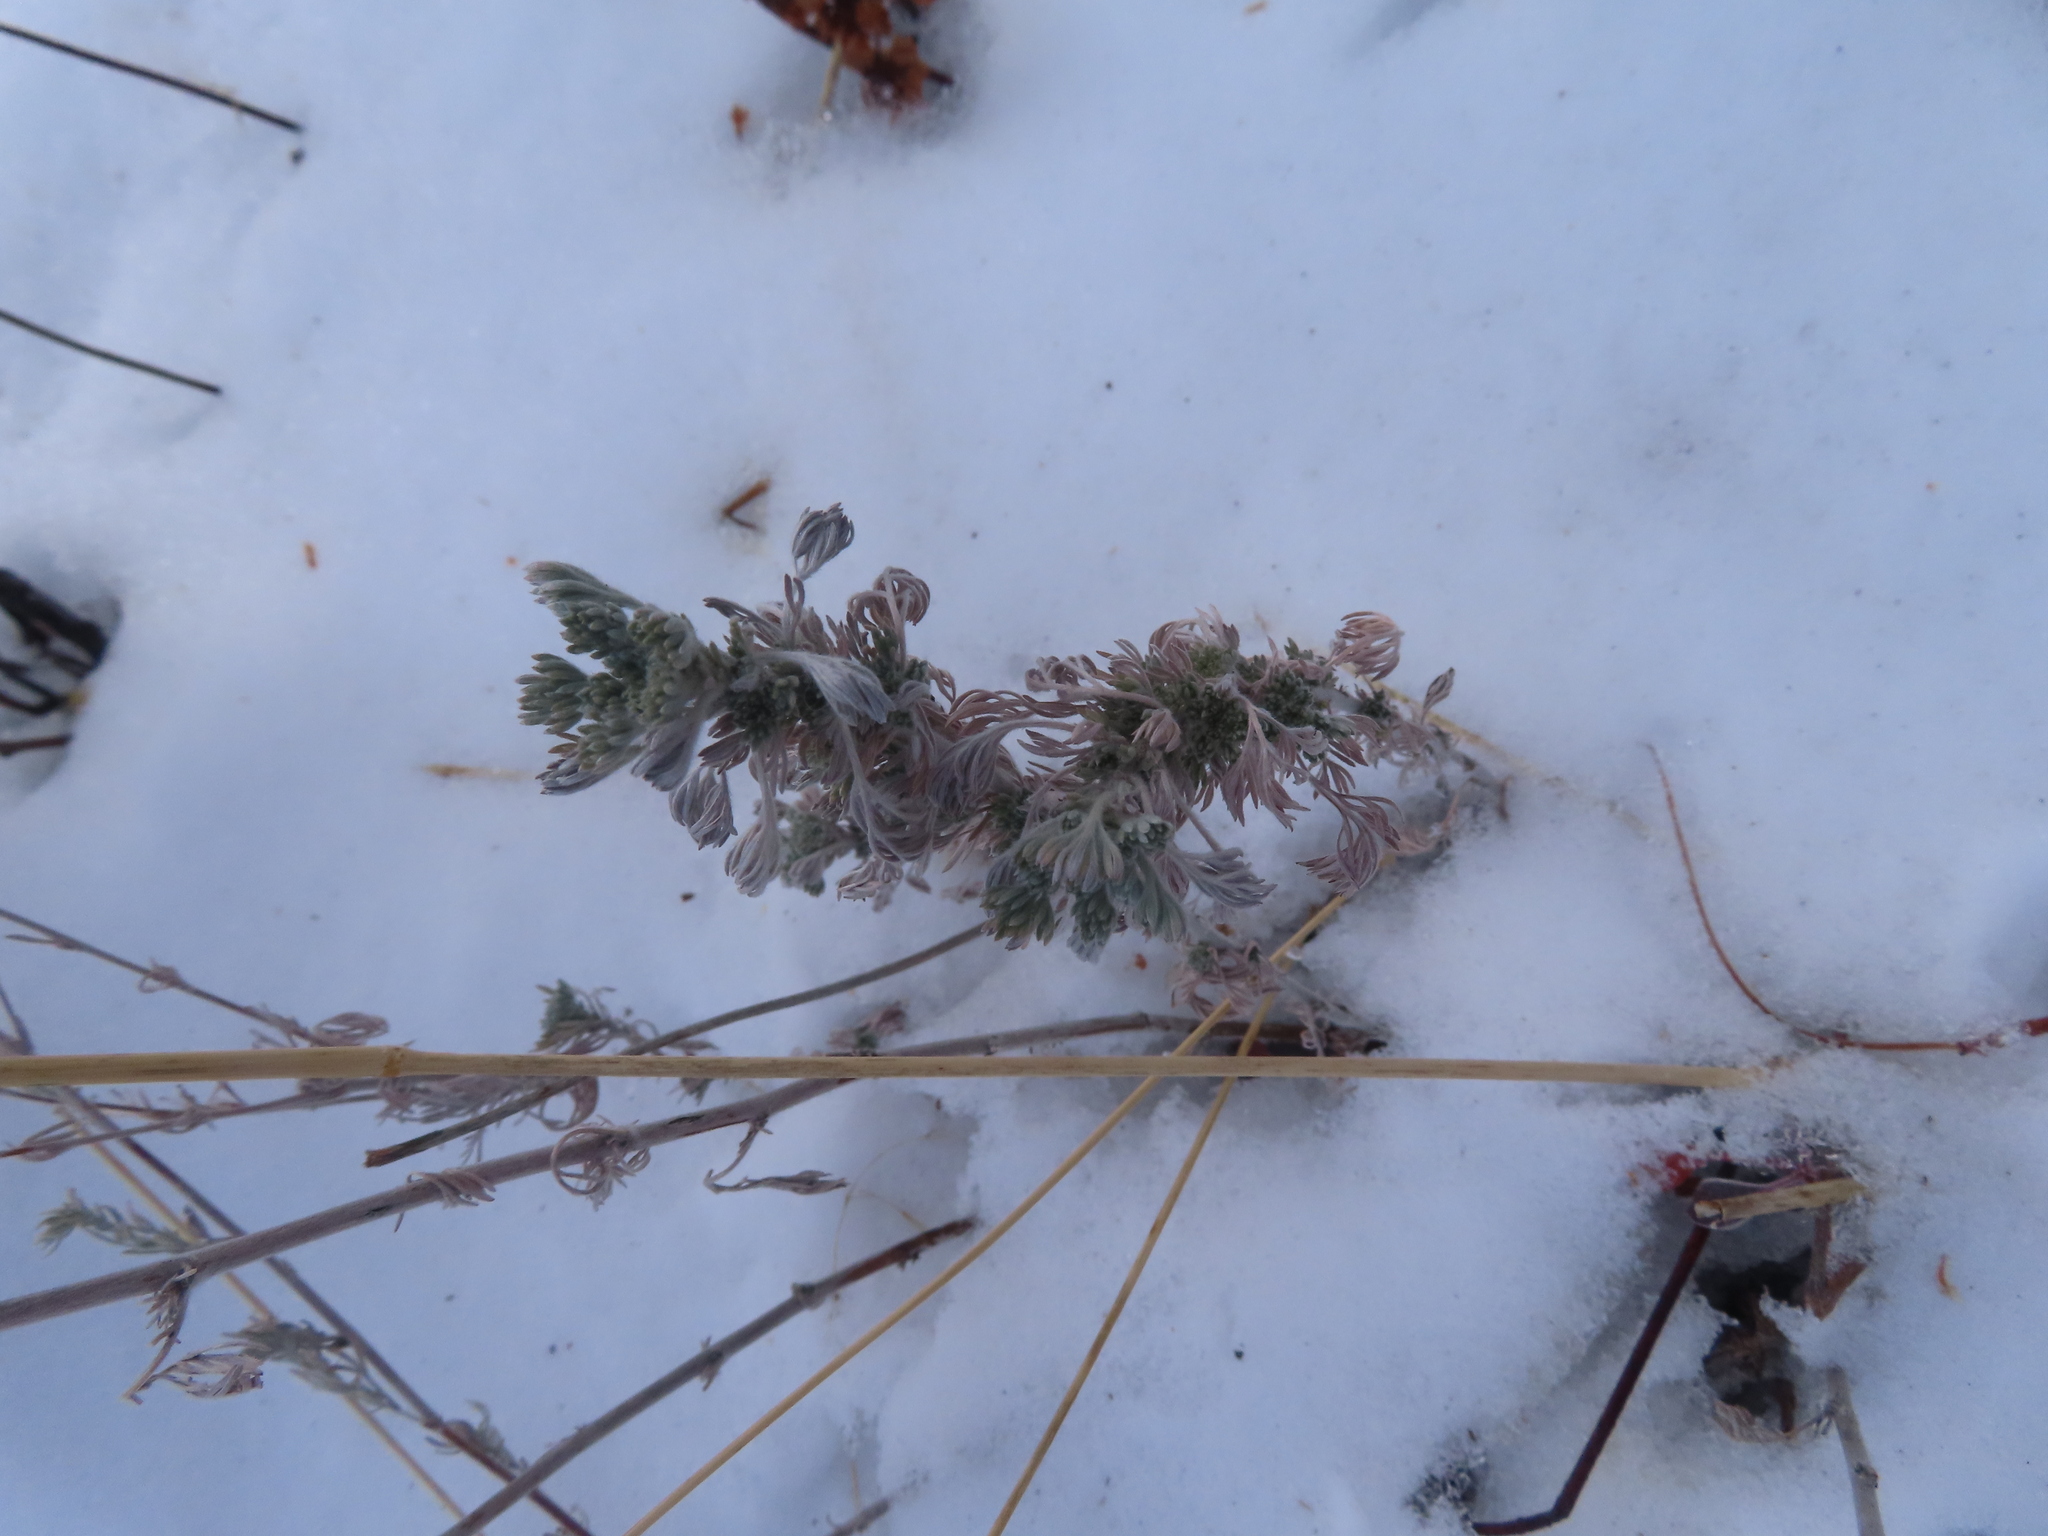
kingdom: Plantae
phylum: Tracheophyta
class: Magnoliopsida
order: Asterales
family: Asteraceae
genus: Artemisia
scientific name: Artemisia frigida
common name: Prairie sagewort
